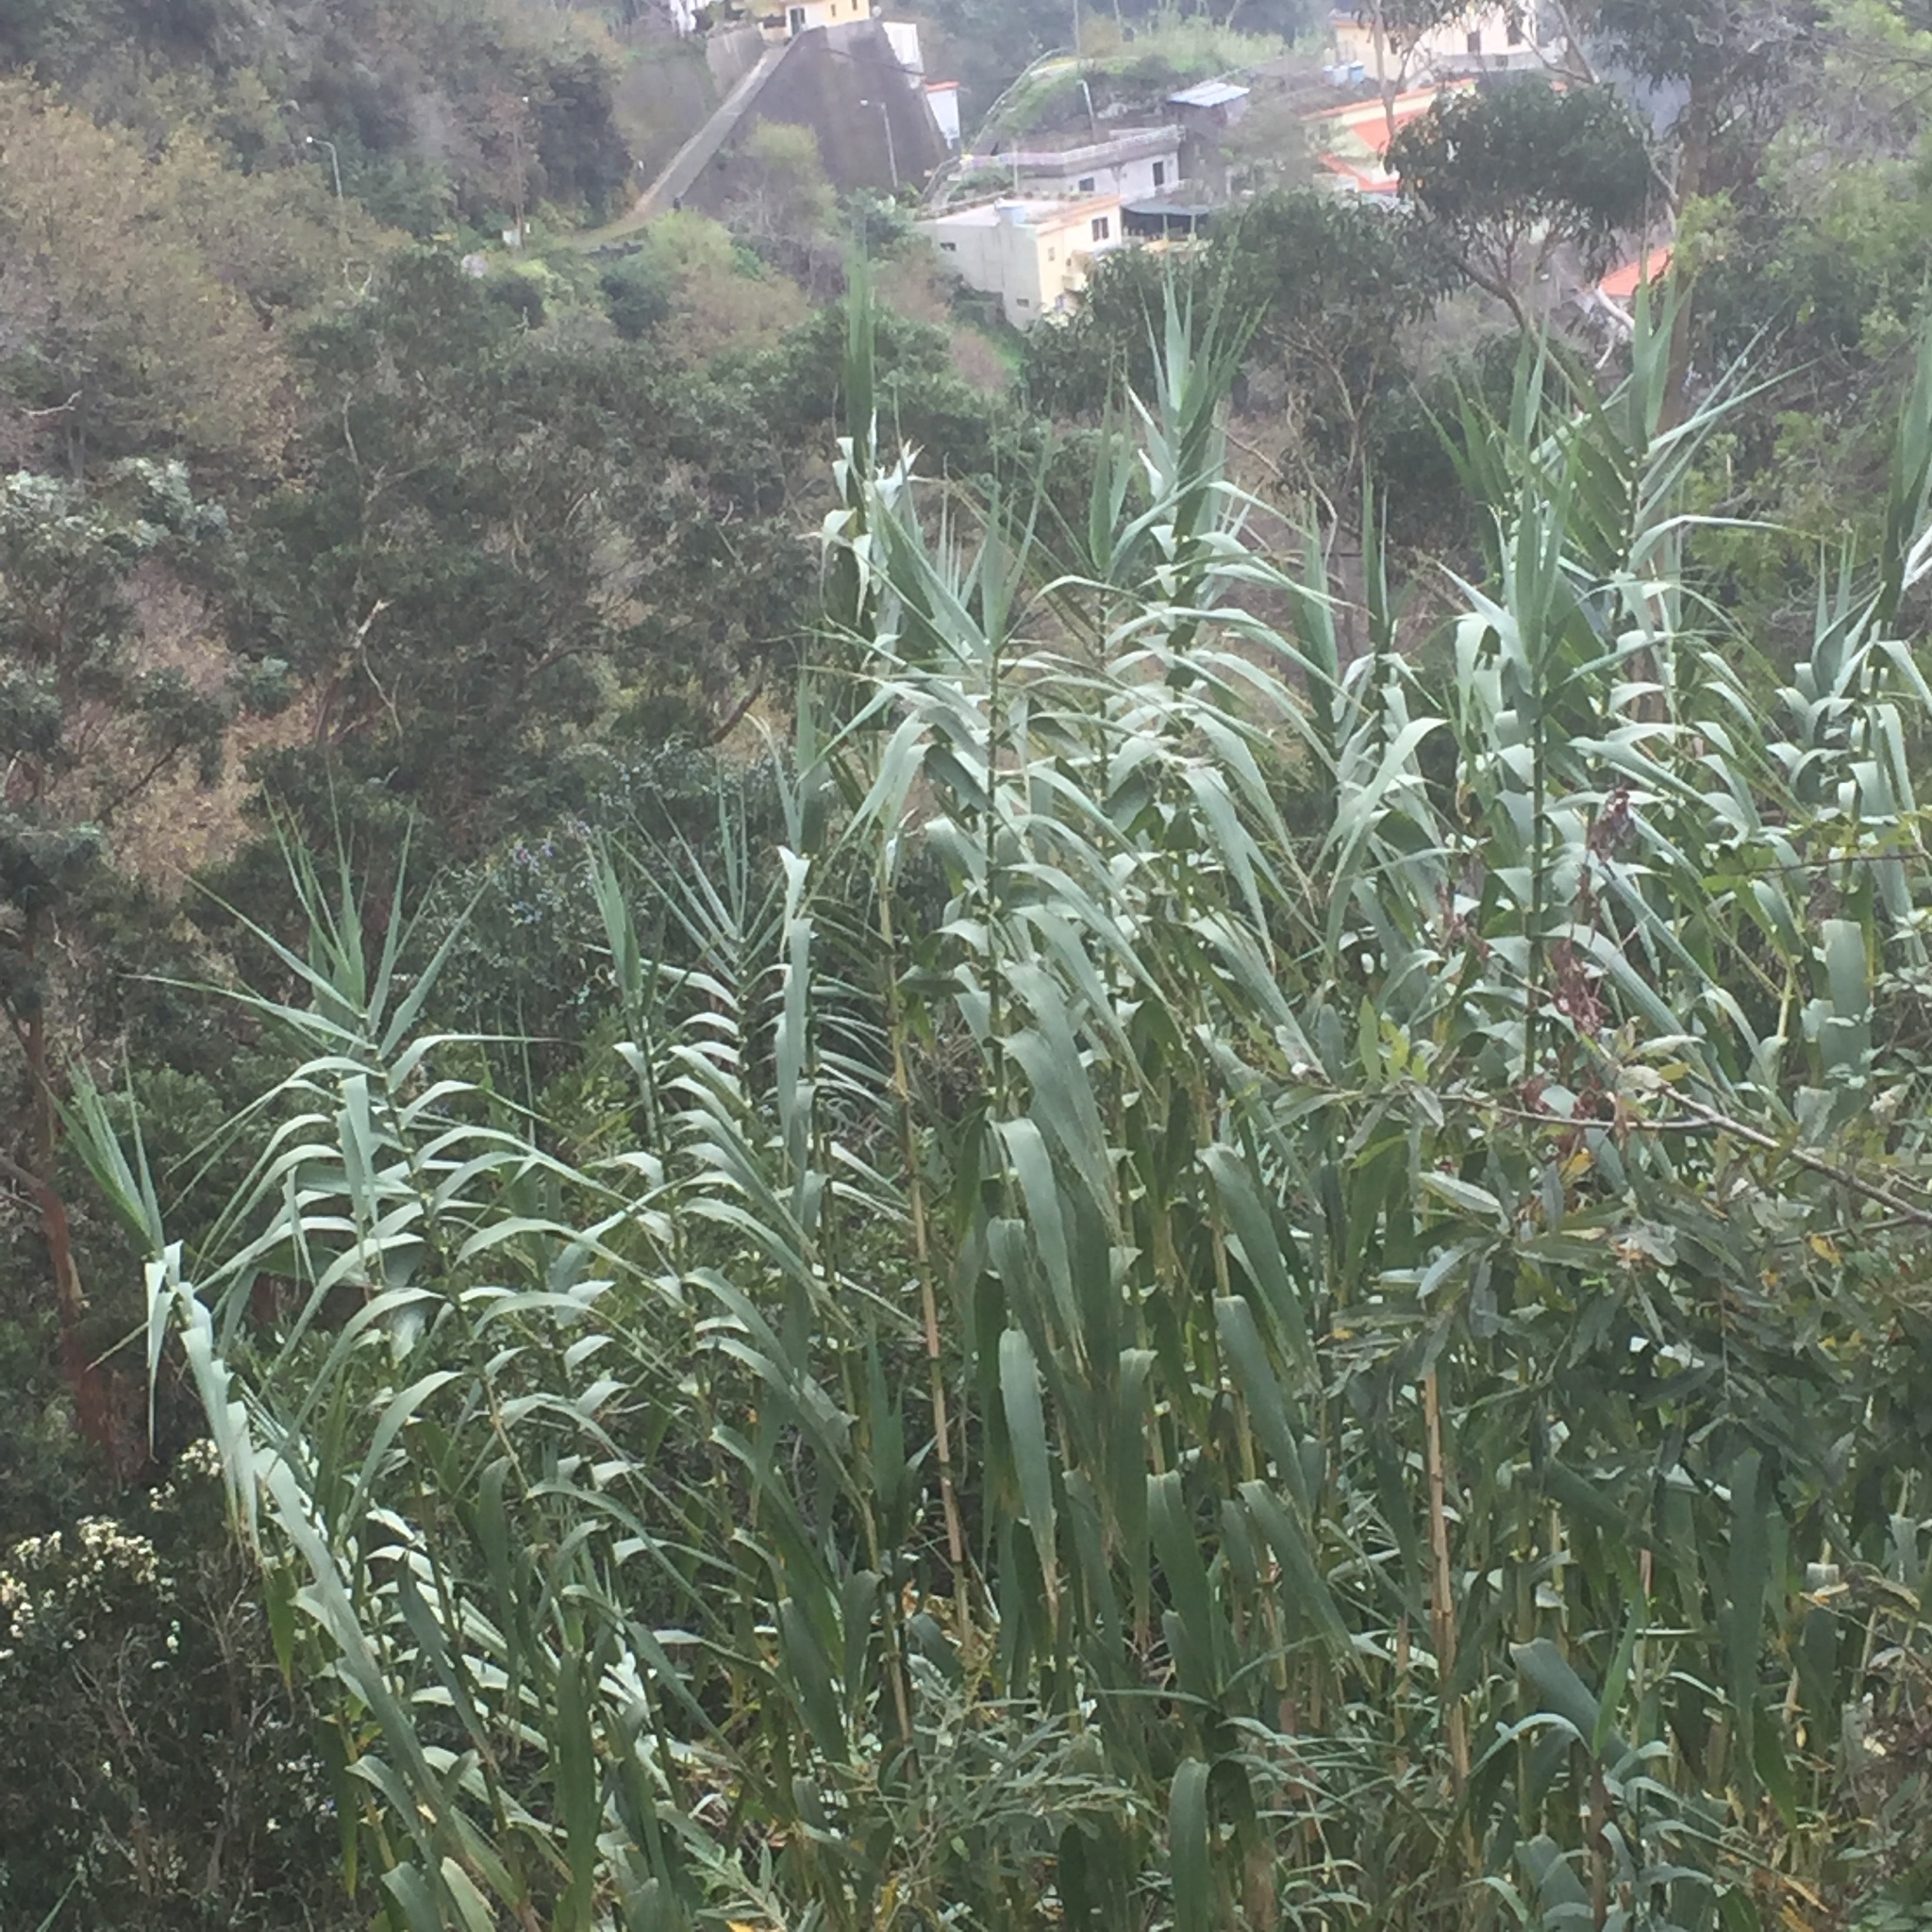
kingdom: Plantae
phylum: Tracheophyta
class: Liliopsida
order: Poales
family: Poaceae
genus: Arundo
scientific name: Arundo donax
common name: Giant reed
